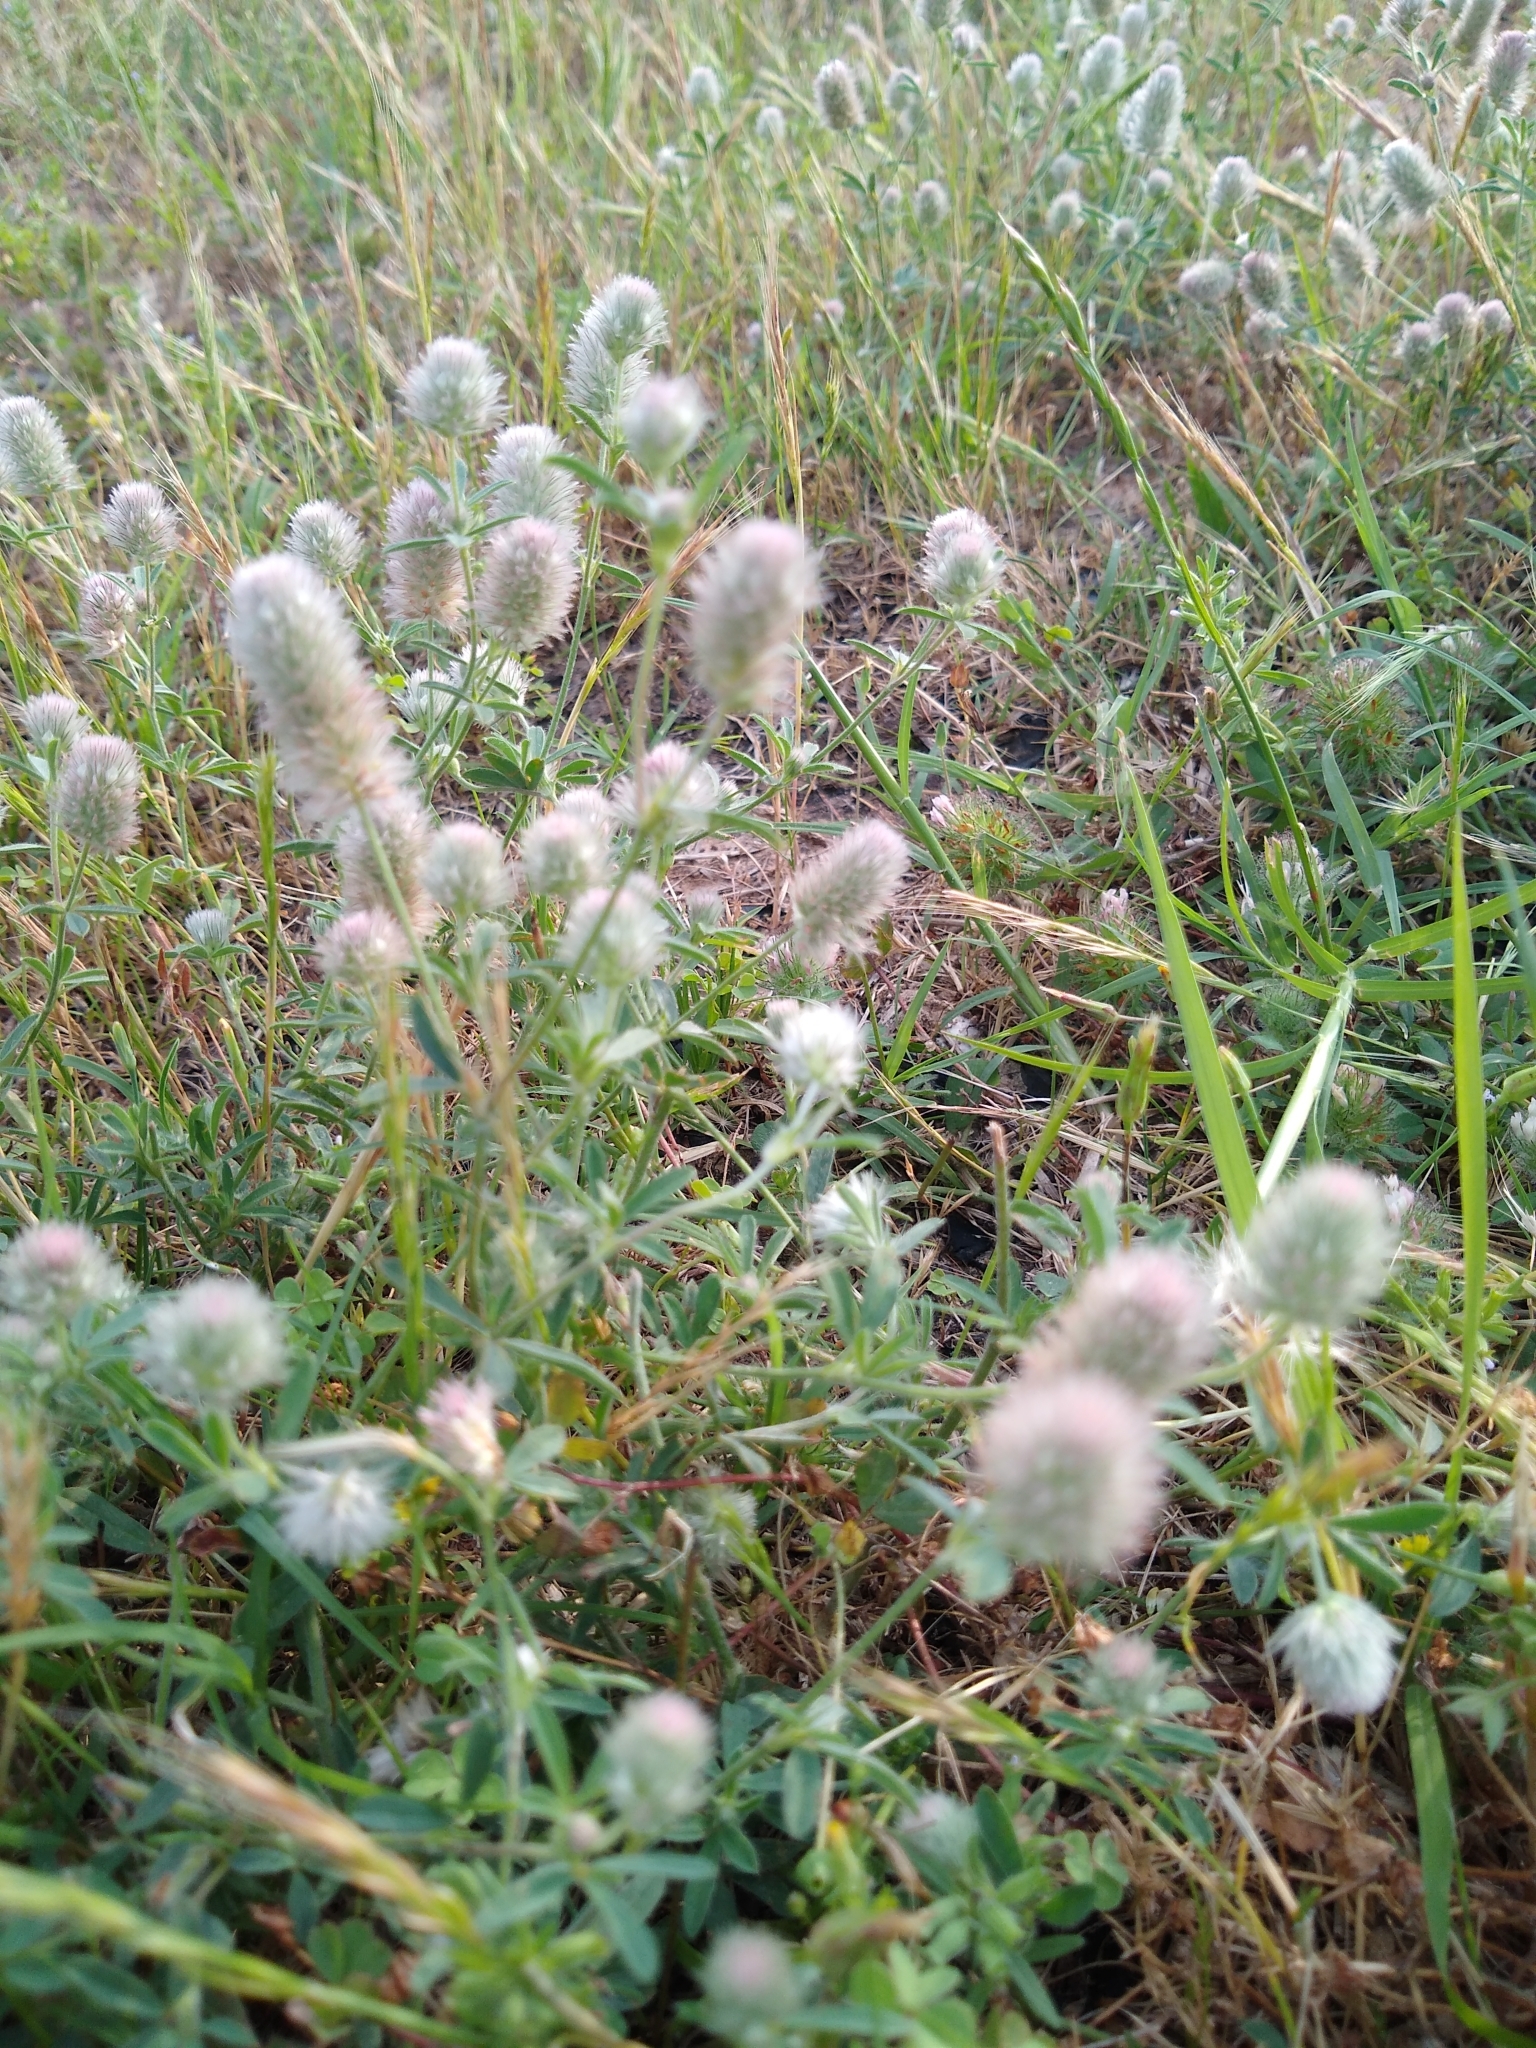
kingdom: Plantae
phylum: Tracheophyta
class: Magnoliopsida
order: Fabales
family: Fabaceae
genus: Trifolium
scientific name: Trifolium arvense
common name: Hare's-foot clover
